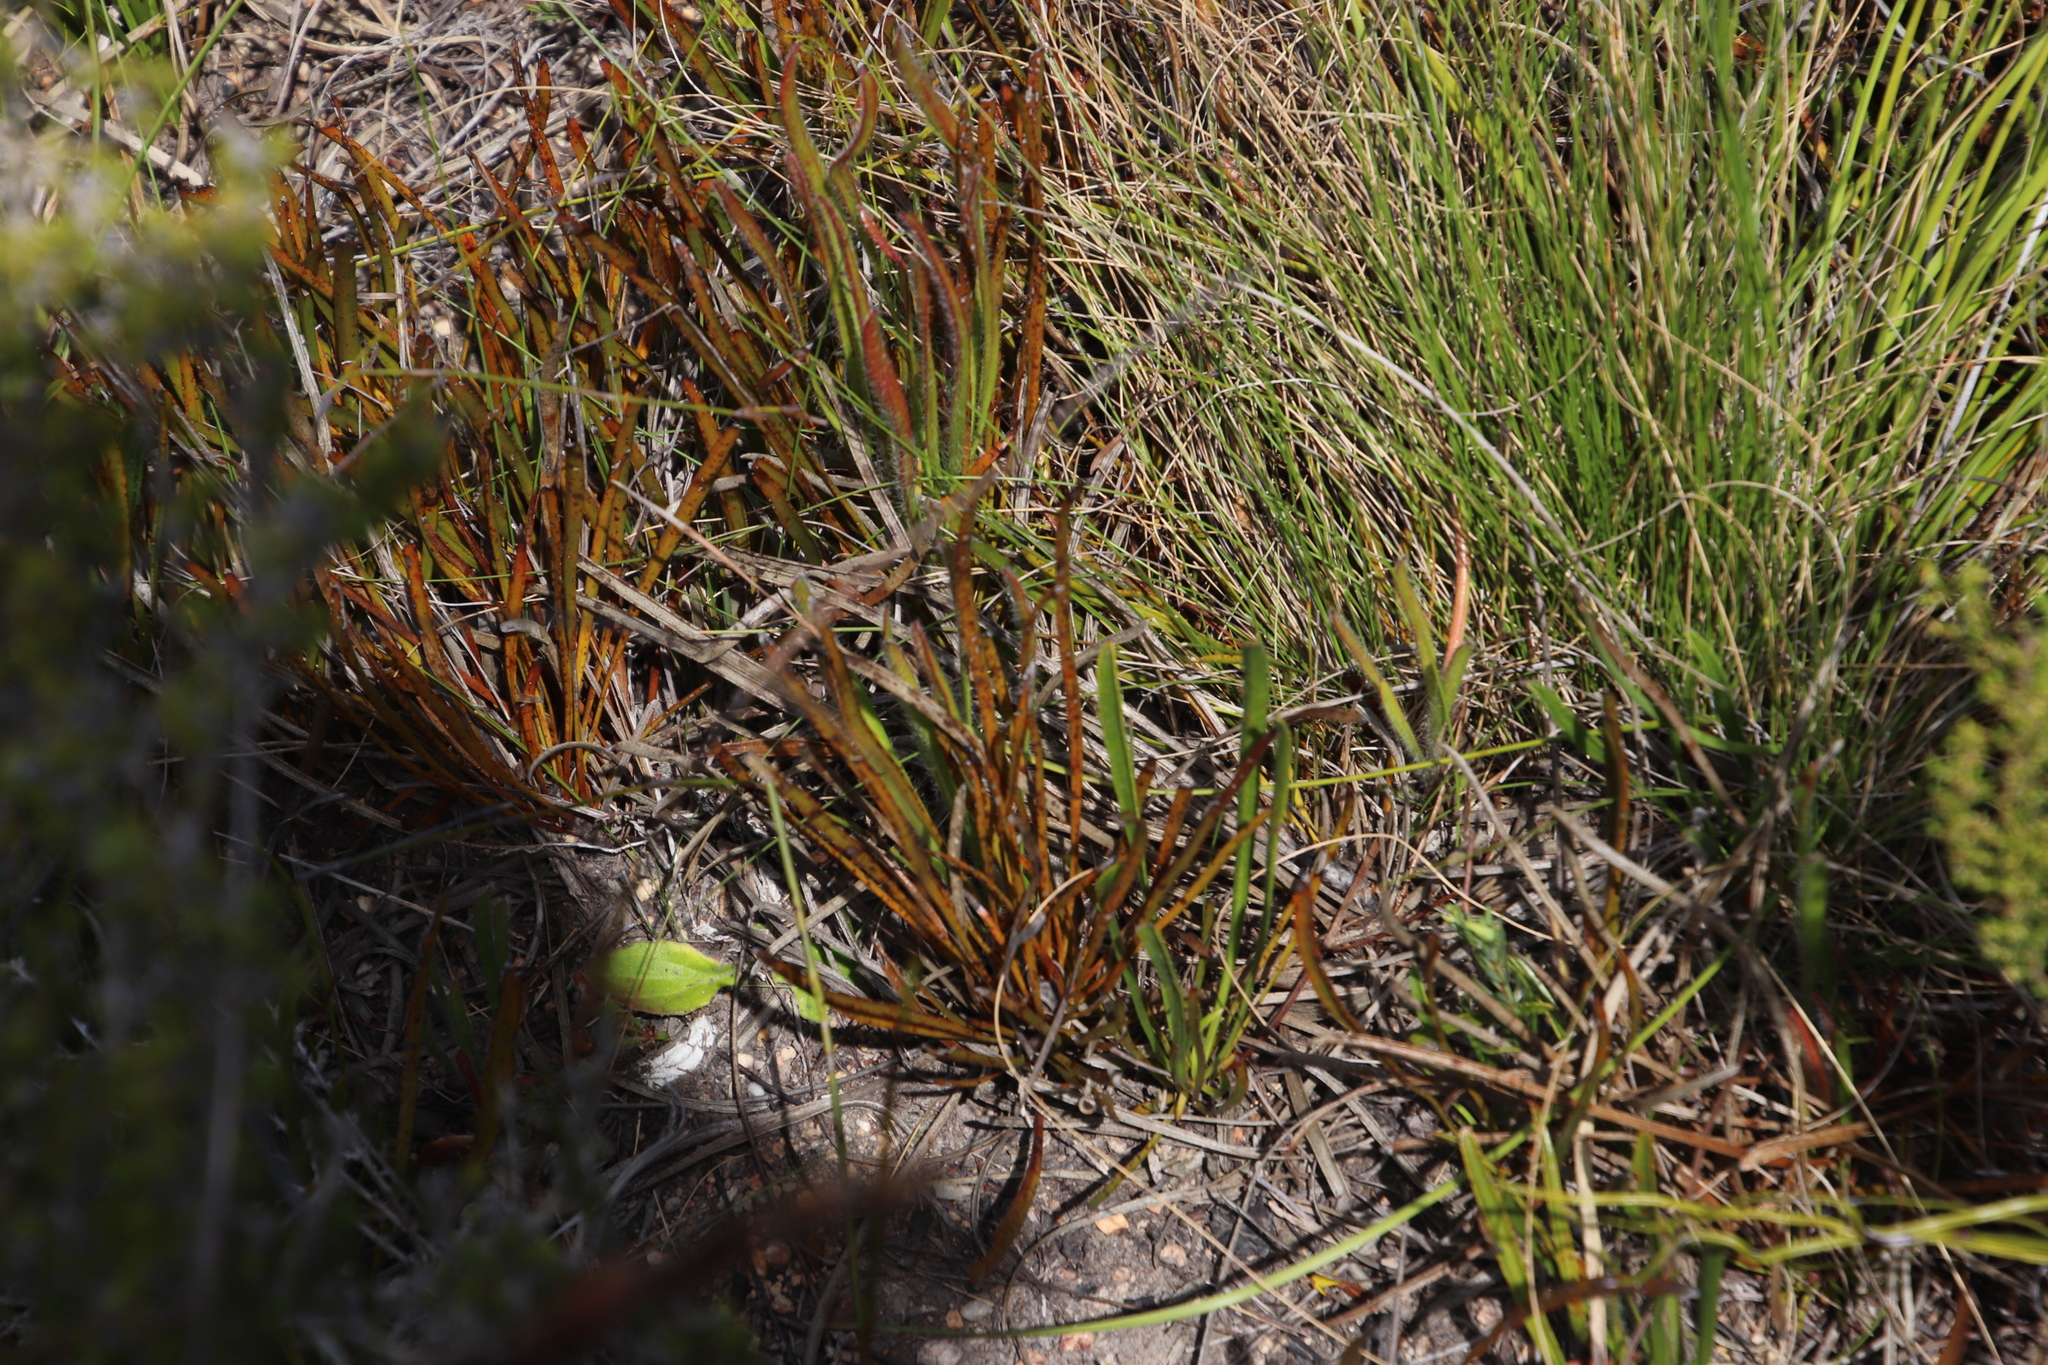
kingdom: Plantae
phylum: Tracheophyta
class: Magnoliopsida
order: Proteales
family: Proteaceae
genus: Protea
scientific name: Protea aspera
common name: Rough-leaf sugarbush
